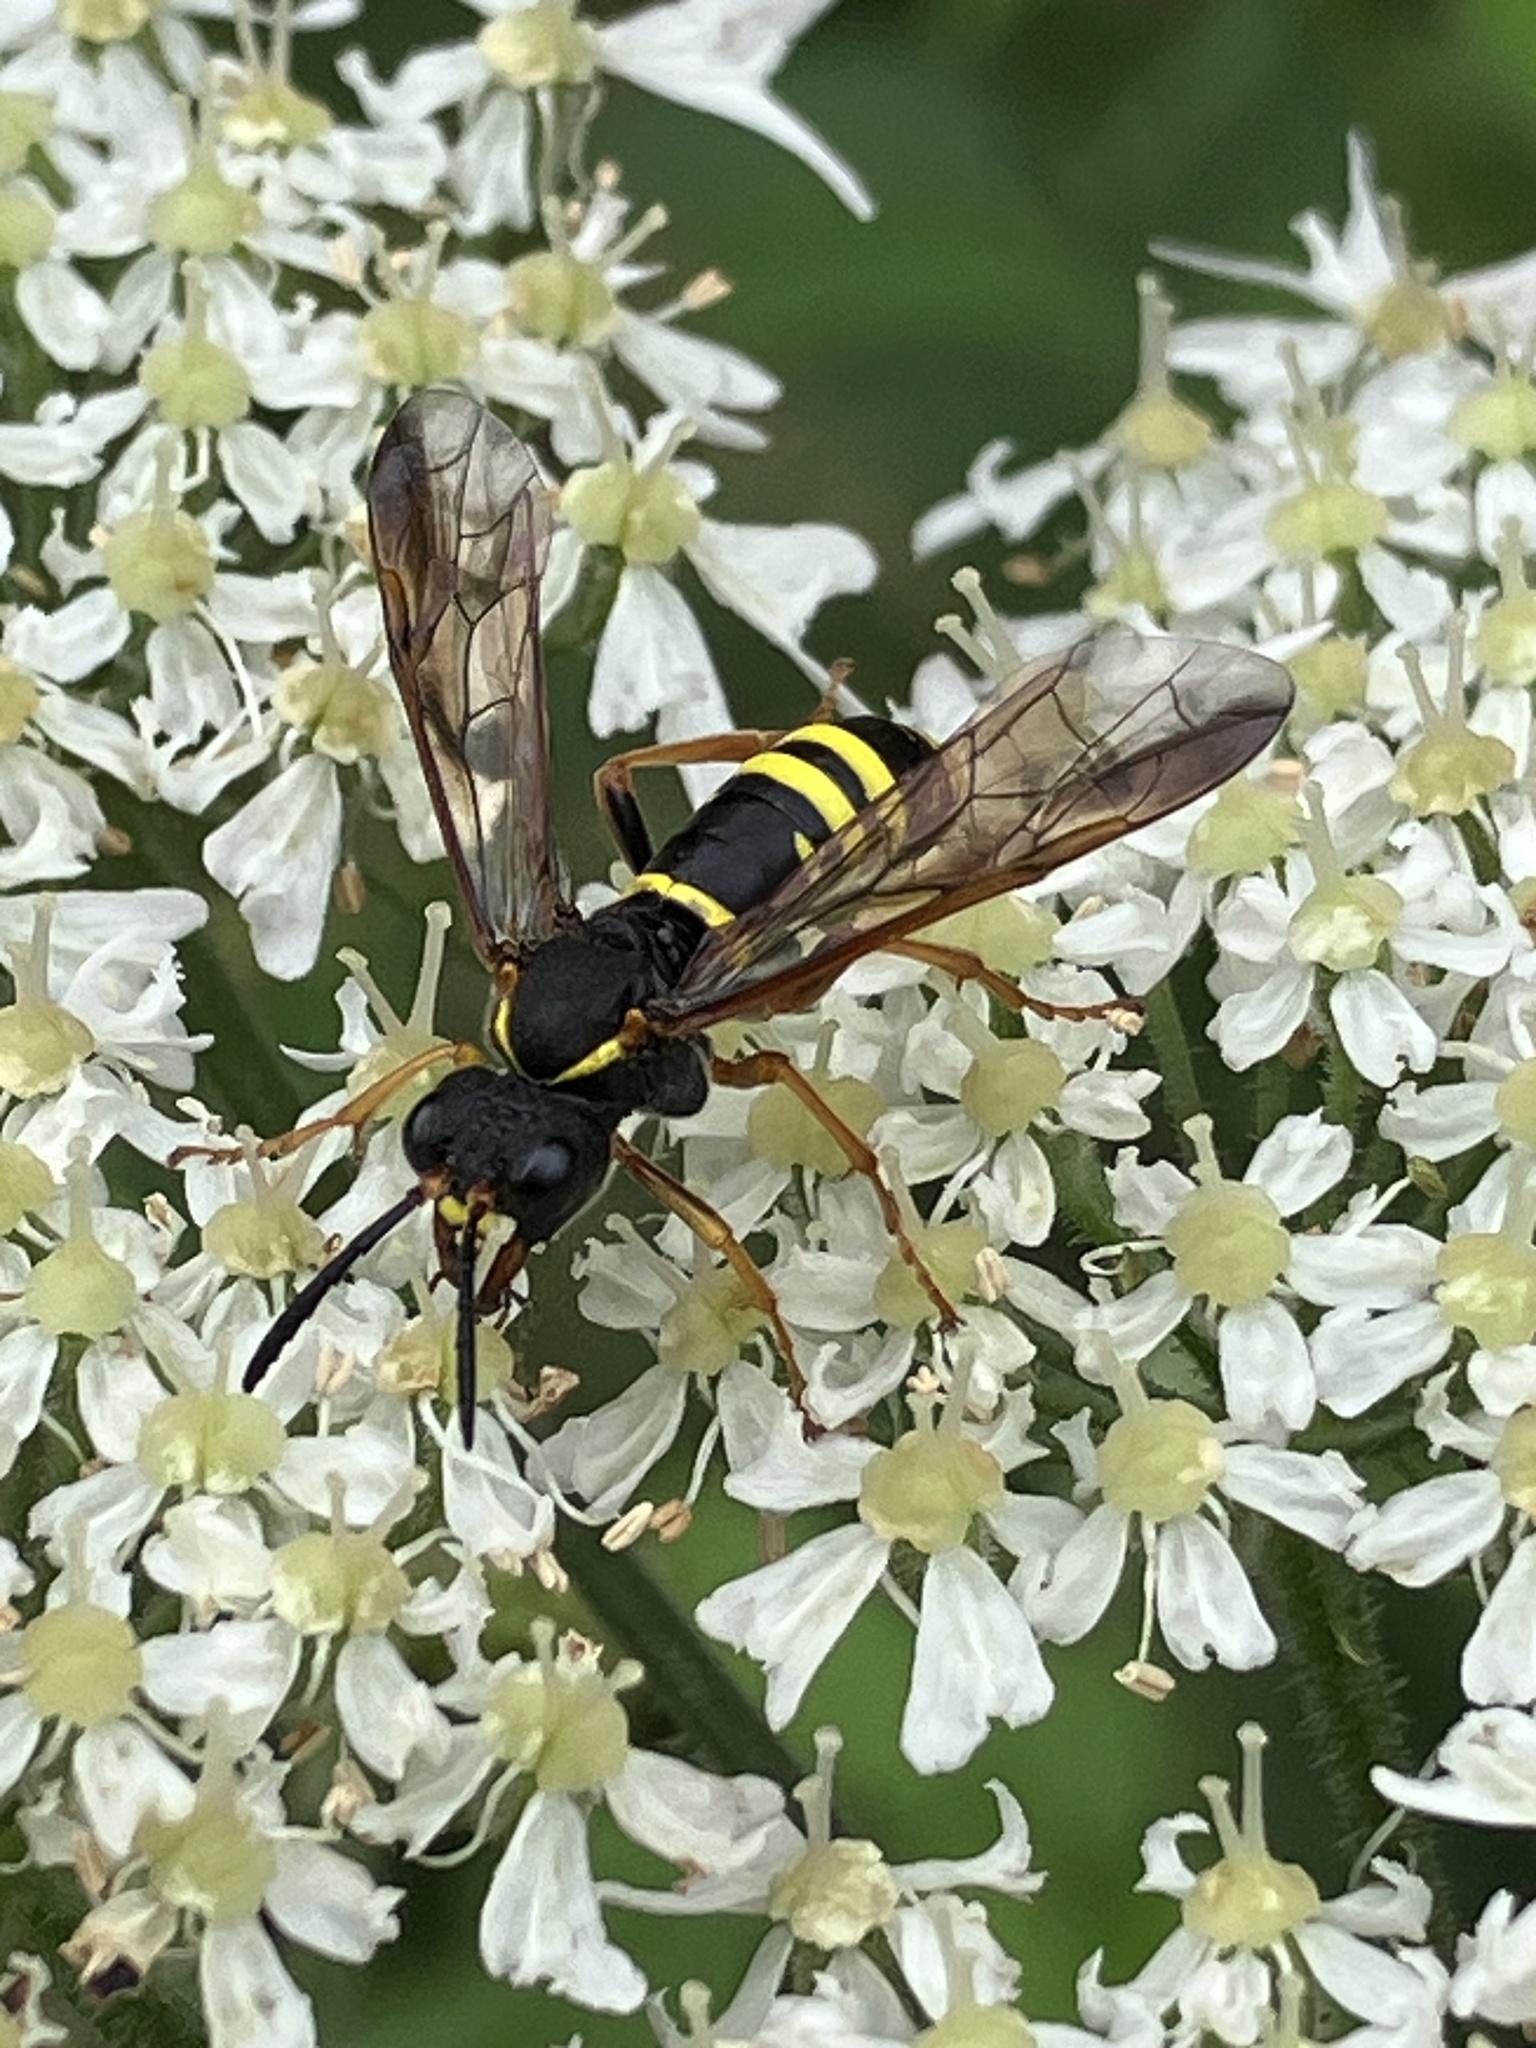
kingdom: Animalia
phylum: Arthropoda
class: Insecta
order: Hymenoptera
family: Tenthredinidae
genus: Tenthredo
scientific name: Tenthredo vespa
